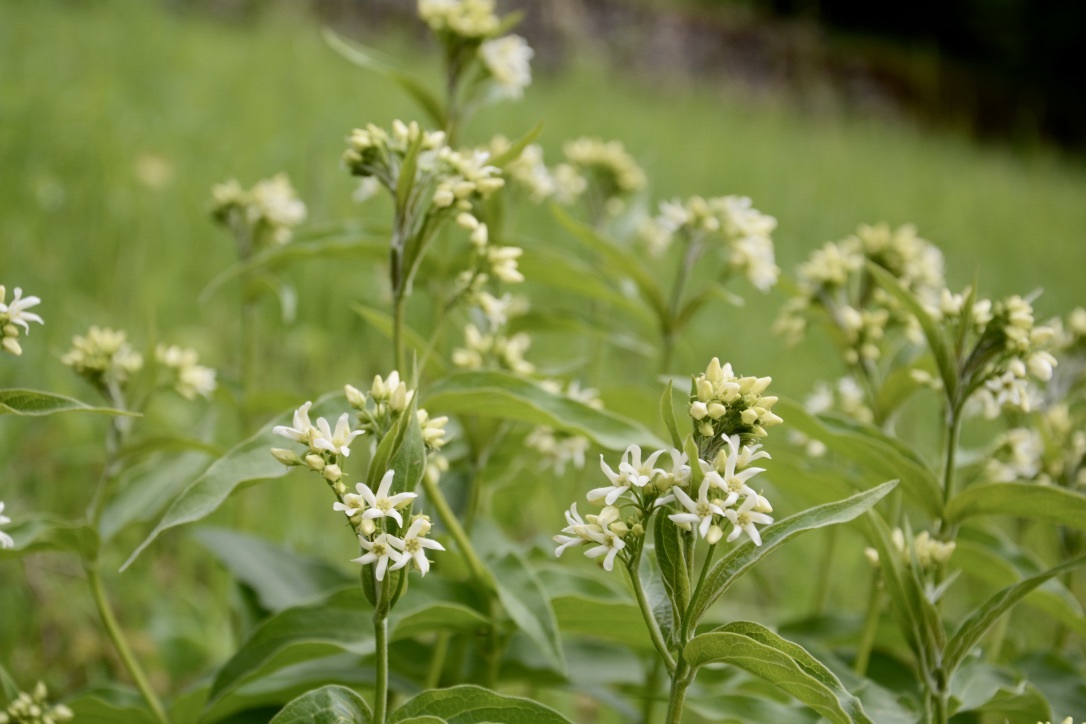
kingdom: Plantae
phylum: Tracheophyta
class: Magnoliopsida
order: Gentianales
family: Apocynaceae
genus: Vincetoxicum
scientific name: Vincetoxicum hirundinaria
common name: White swallowwort
